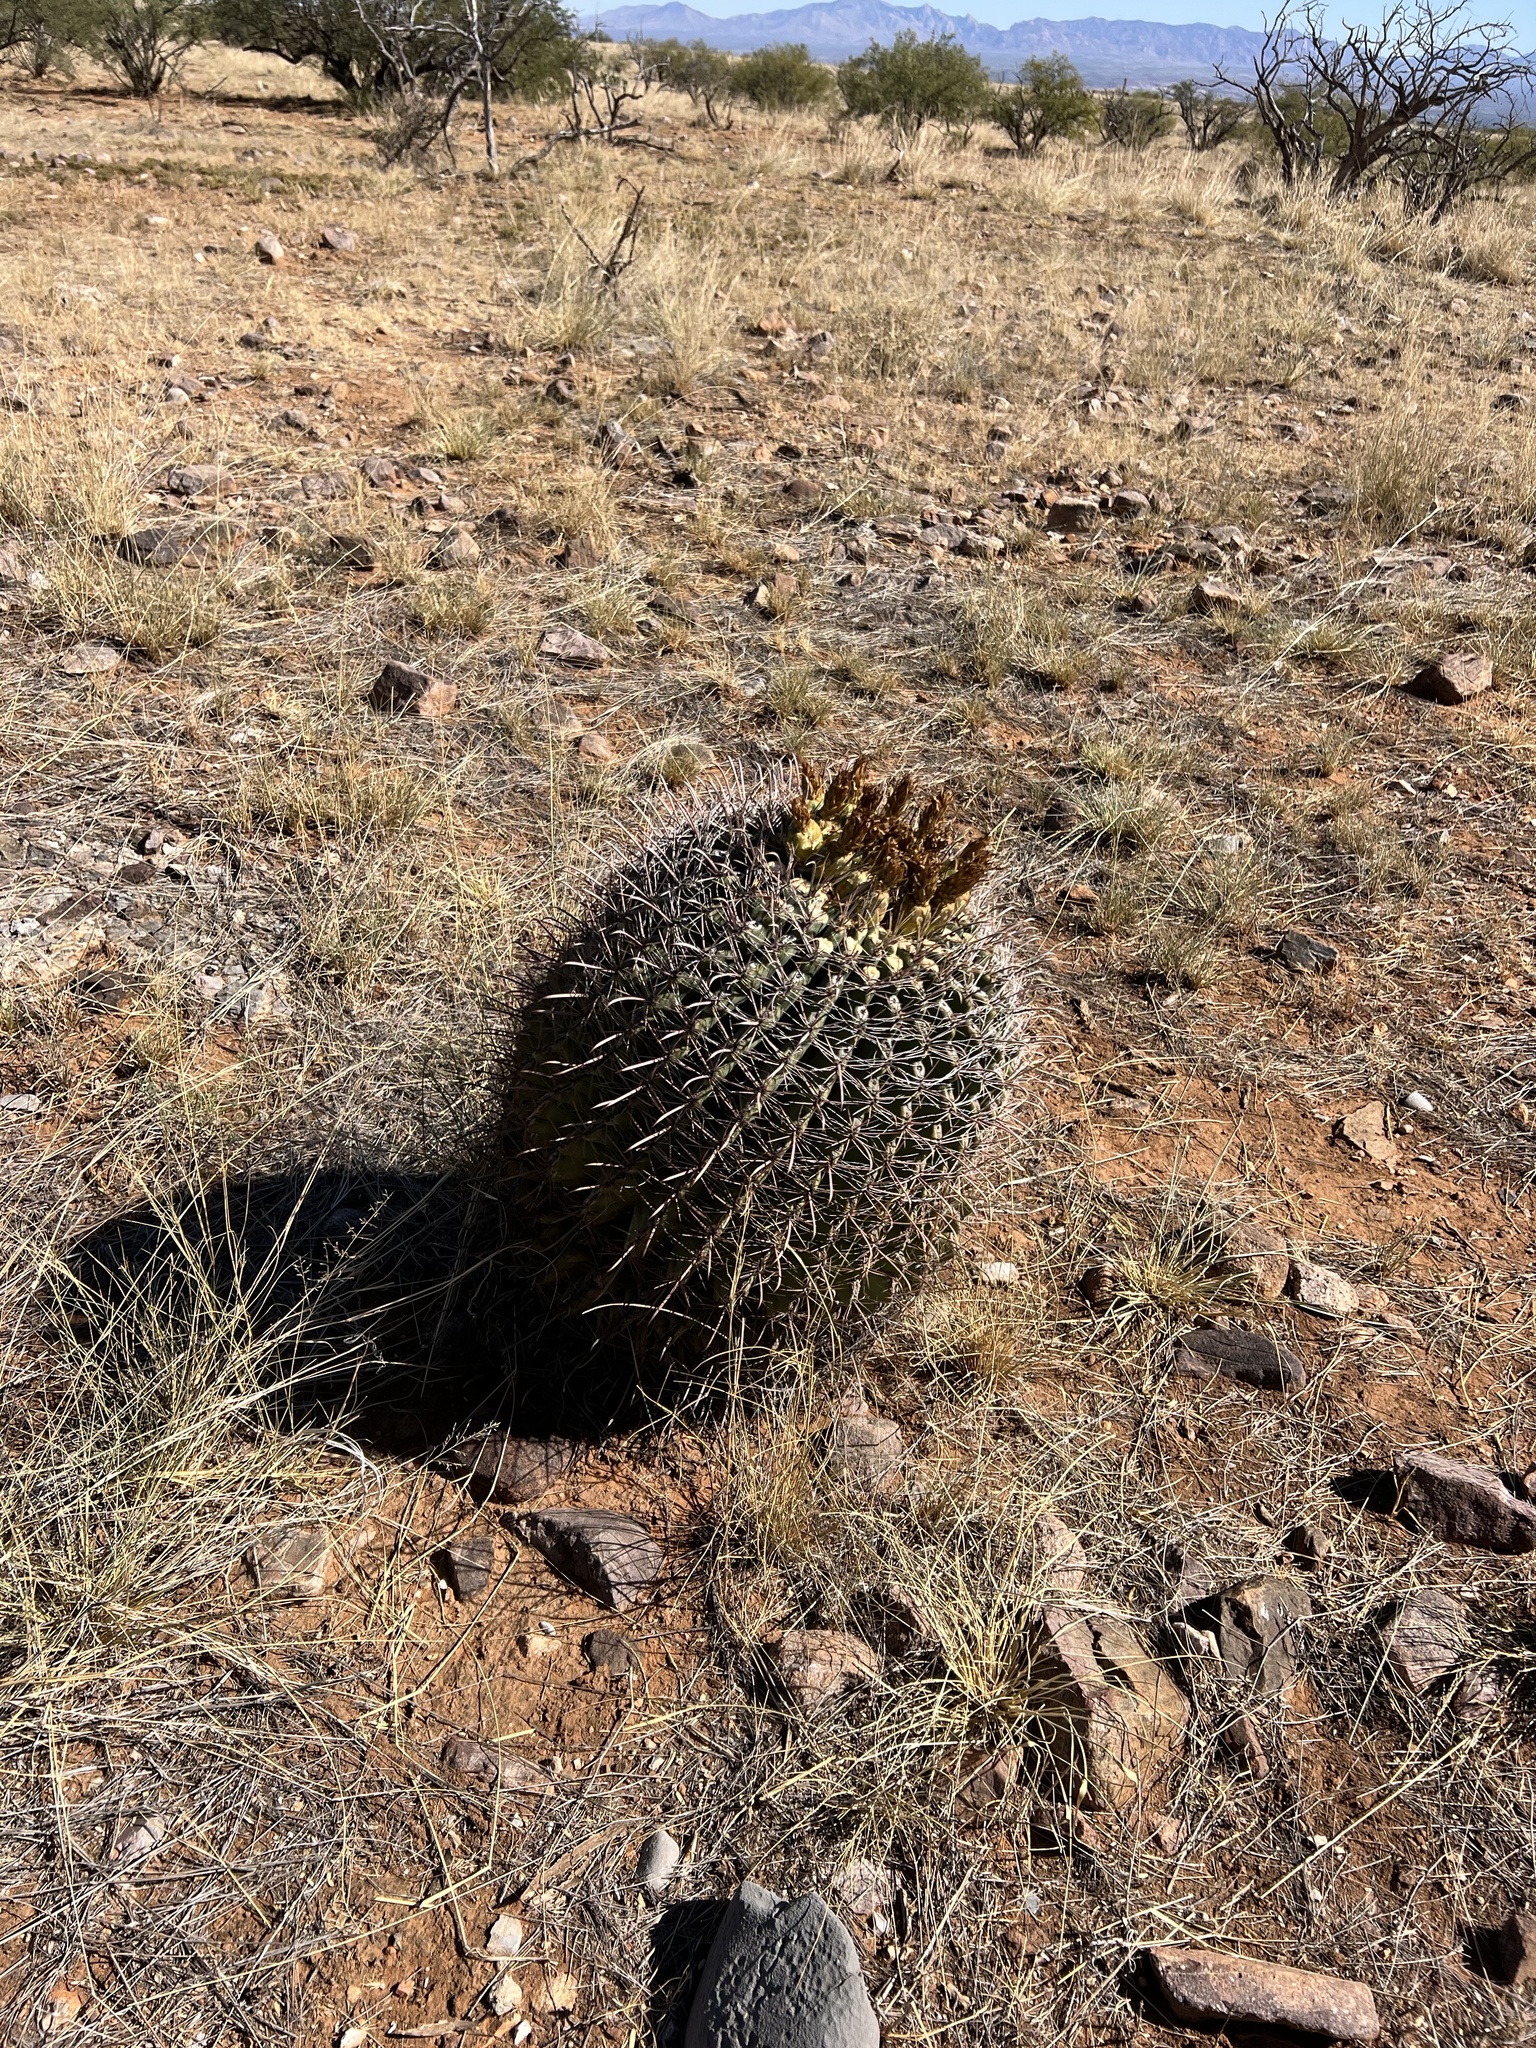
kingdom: Plantae
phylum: Tracheophyta
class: Magnoliopsida
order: Caryophyllales
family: Cactaceae
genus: Ferocactus
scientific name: Ferocactus wislizeni
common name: Candy barrel cactus
